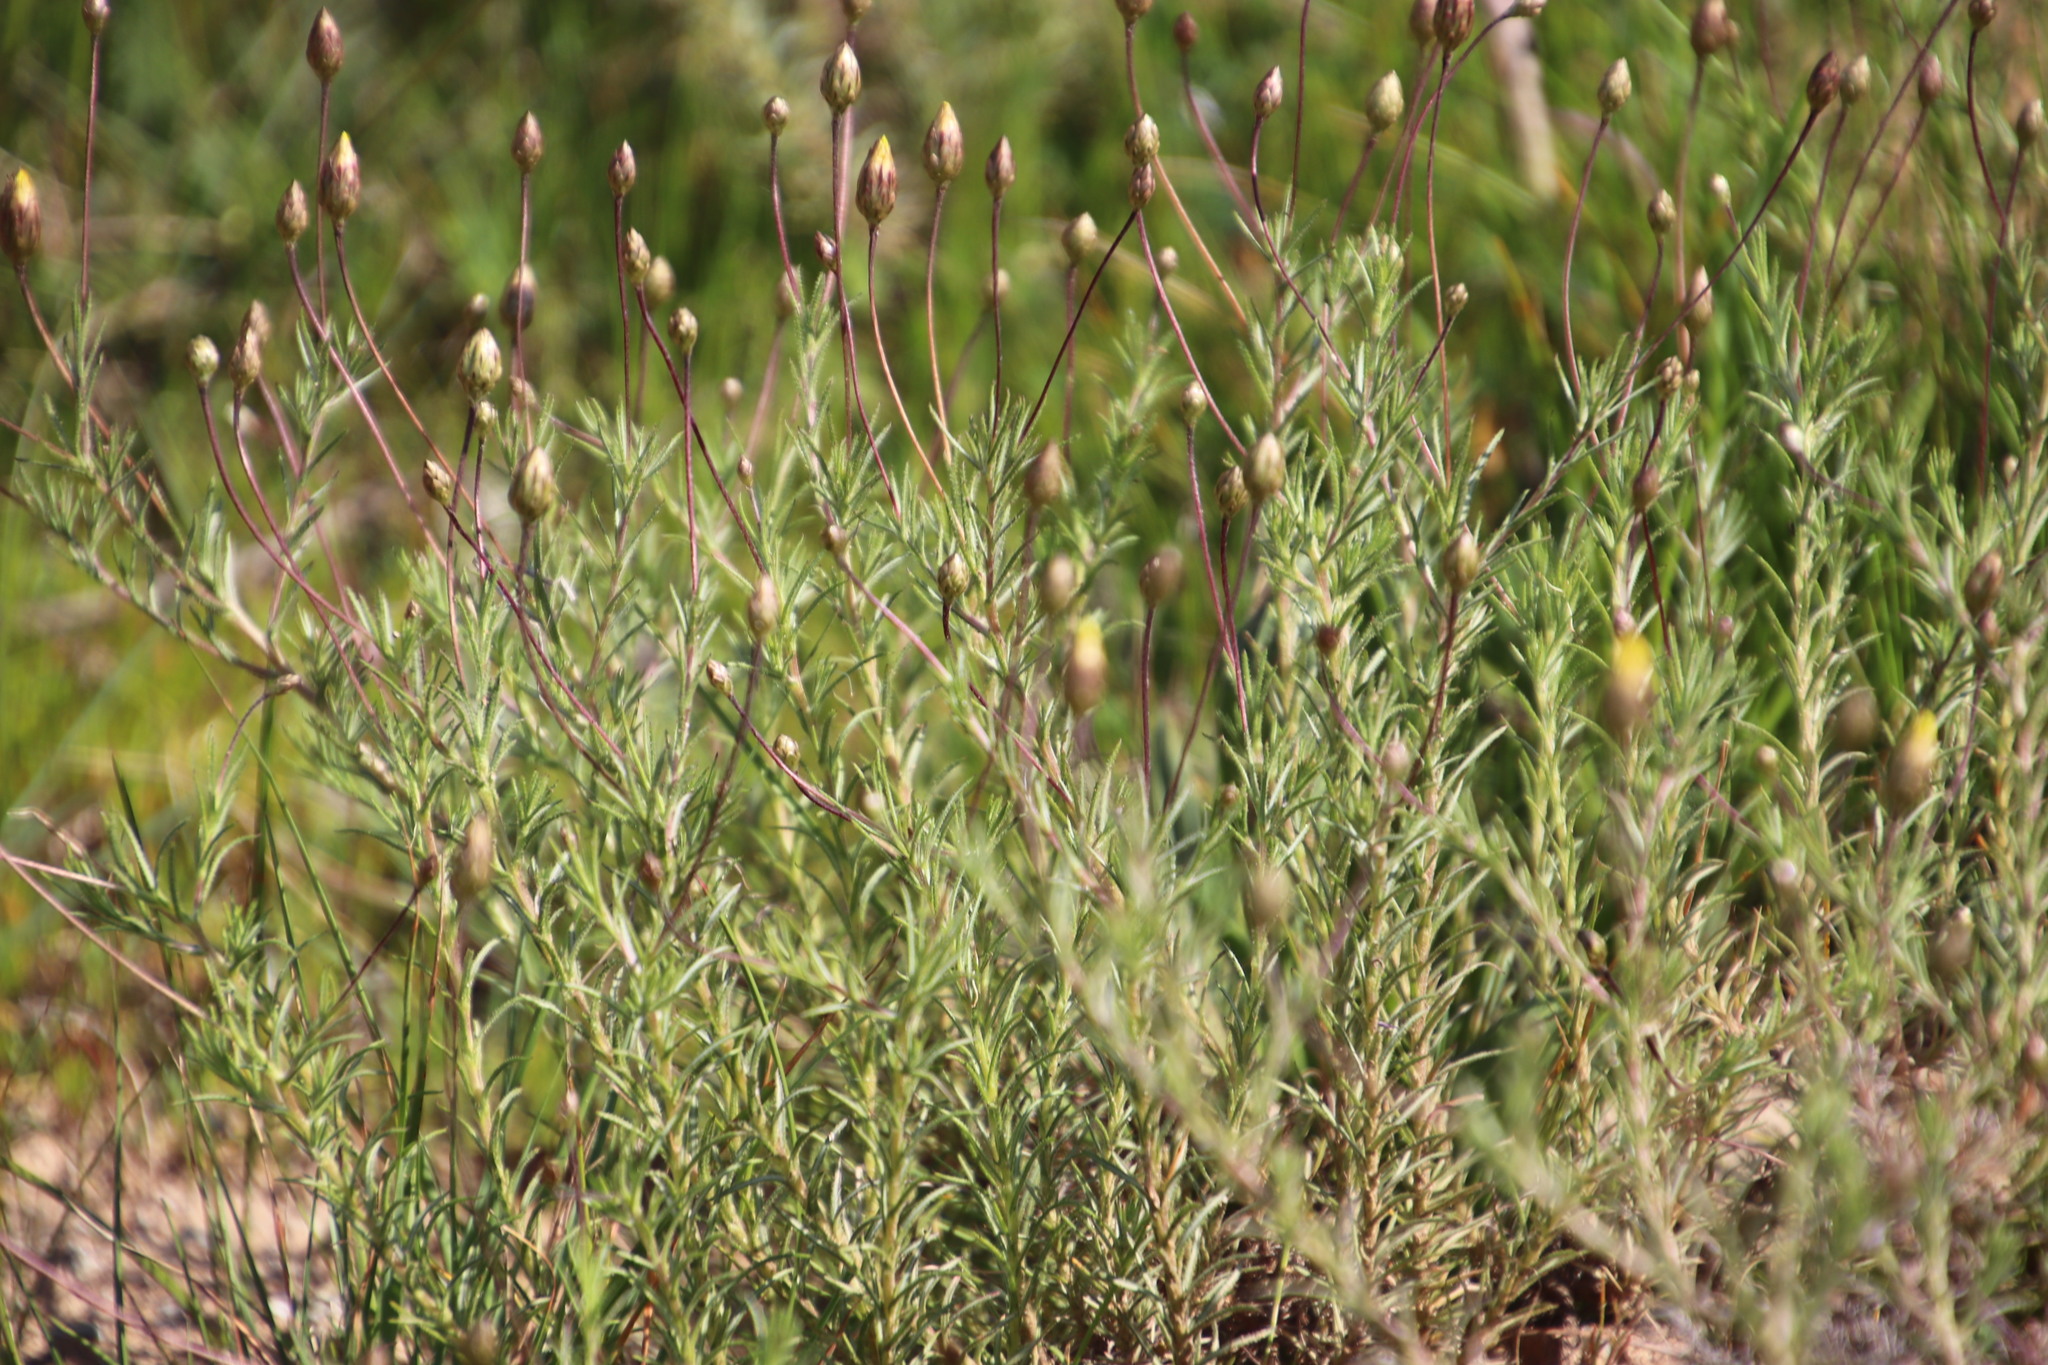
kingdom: Plantae
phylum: Tracheophyta
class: Magnoliopsida
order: Asterales
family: Asteraceae
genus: Leysera
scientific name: Leysera gnaphalodes
